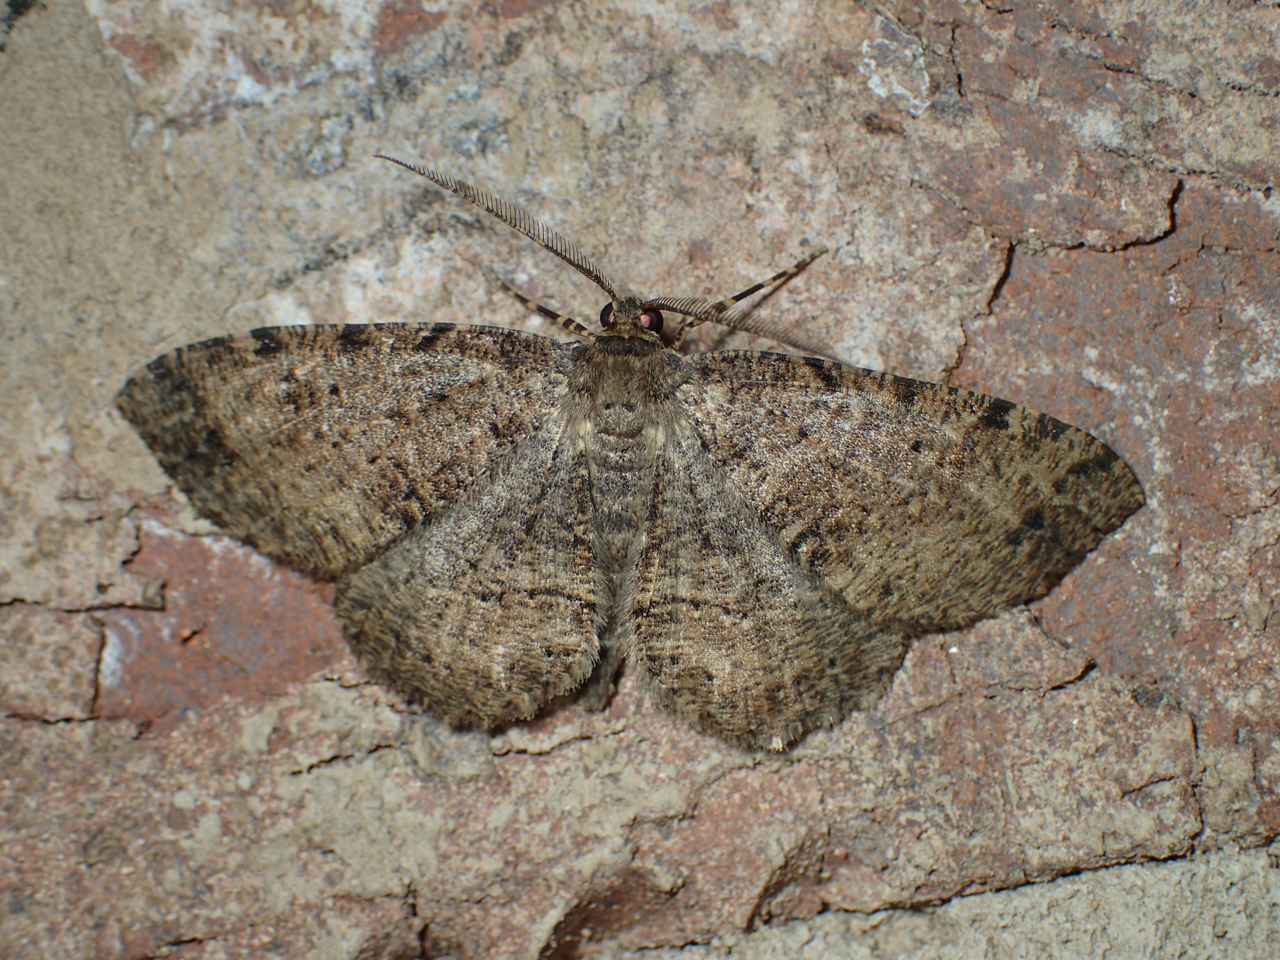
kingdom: Animalia
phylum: Arthropoda
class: Insecta
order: Lepidoptera
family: Geometridae
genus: Melanolophia
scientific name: Melanolophia canadaria
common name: Canadian melanolophia
